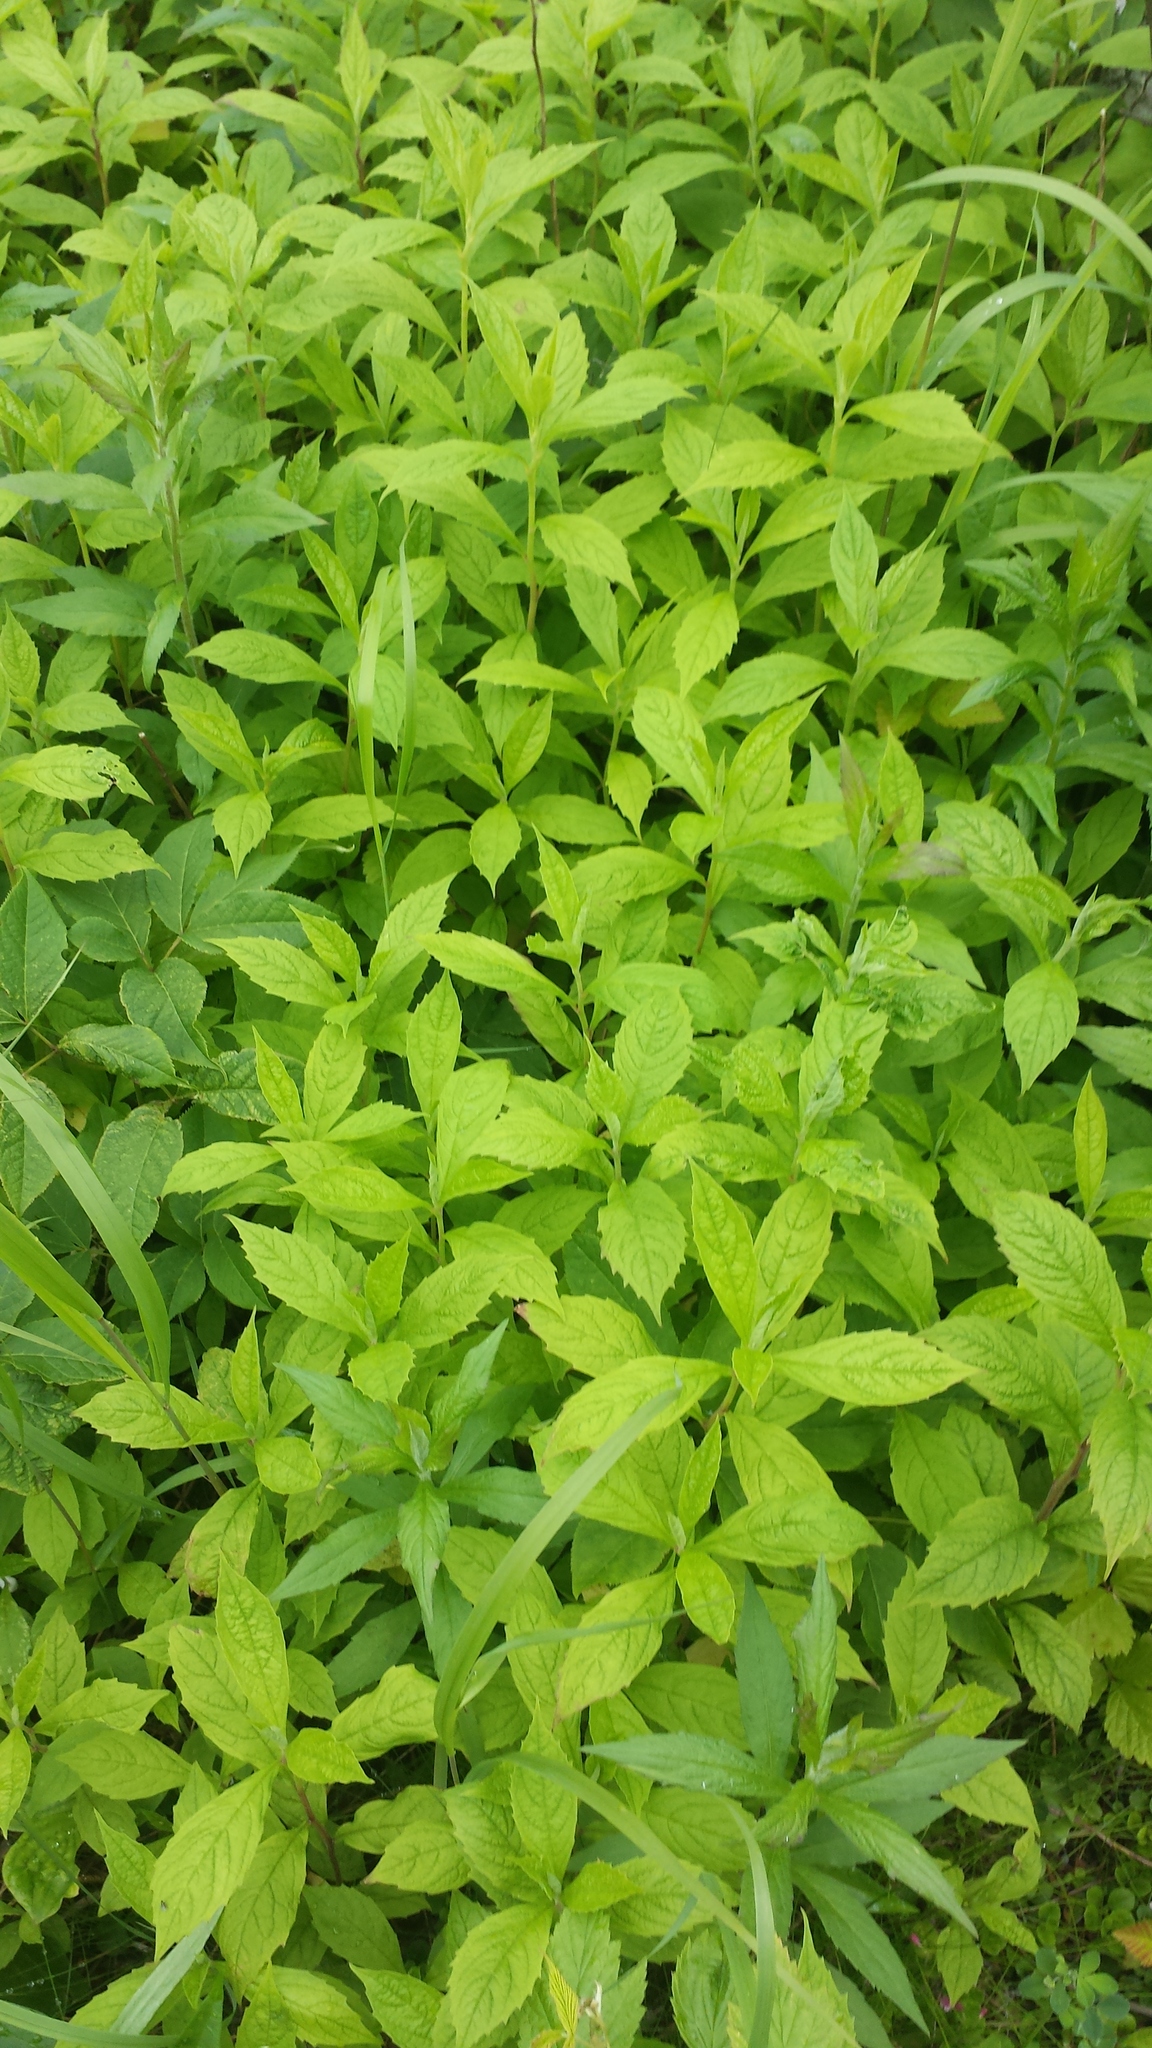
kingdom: Plantae
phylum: Tracheophyta
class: Magnoliopsida
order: Asterales
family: Asteraceae
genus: Oclemena
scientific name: Oclemena acuminata
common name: Mountain aster
